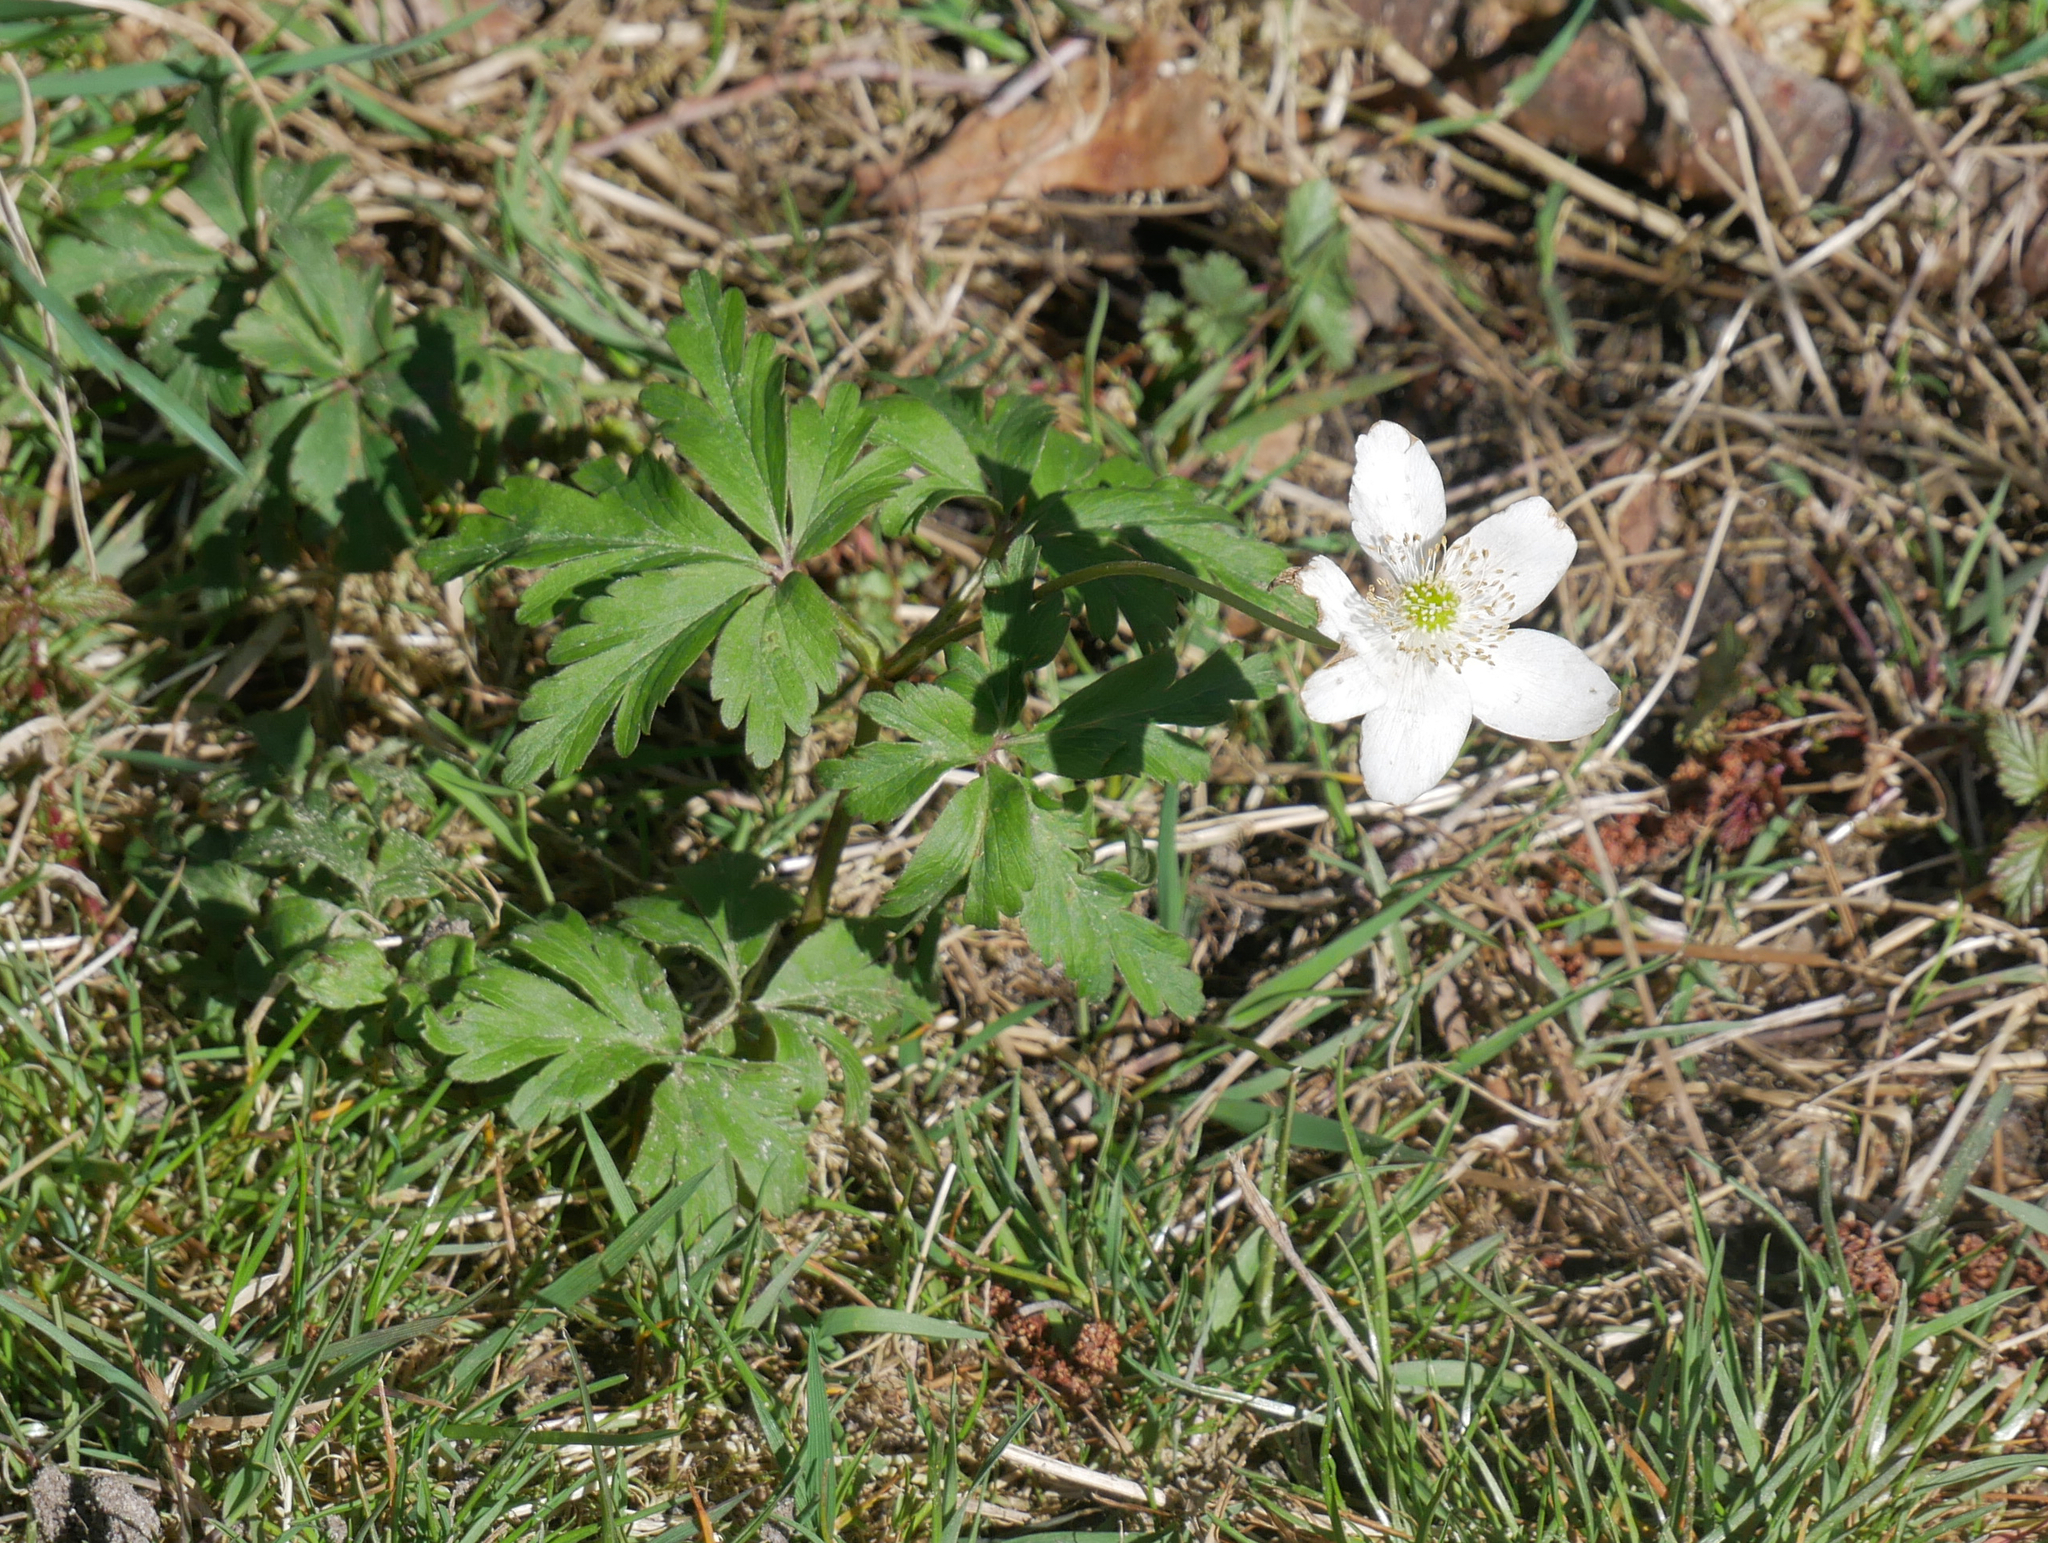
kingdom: Plantae
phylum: Tracheophyta
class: Magnoliopsida
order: Ranunculales
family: Ranunculaceae
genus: Anemone
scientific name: Anemone nemorosa
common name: Wood anemone
